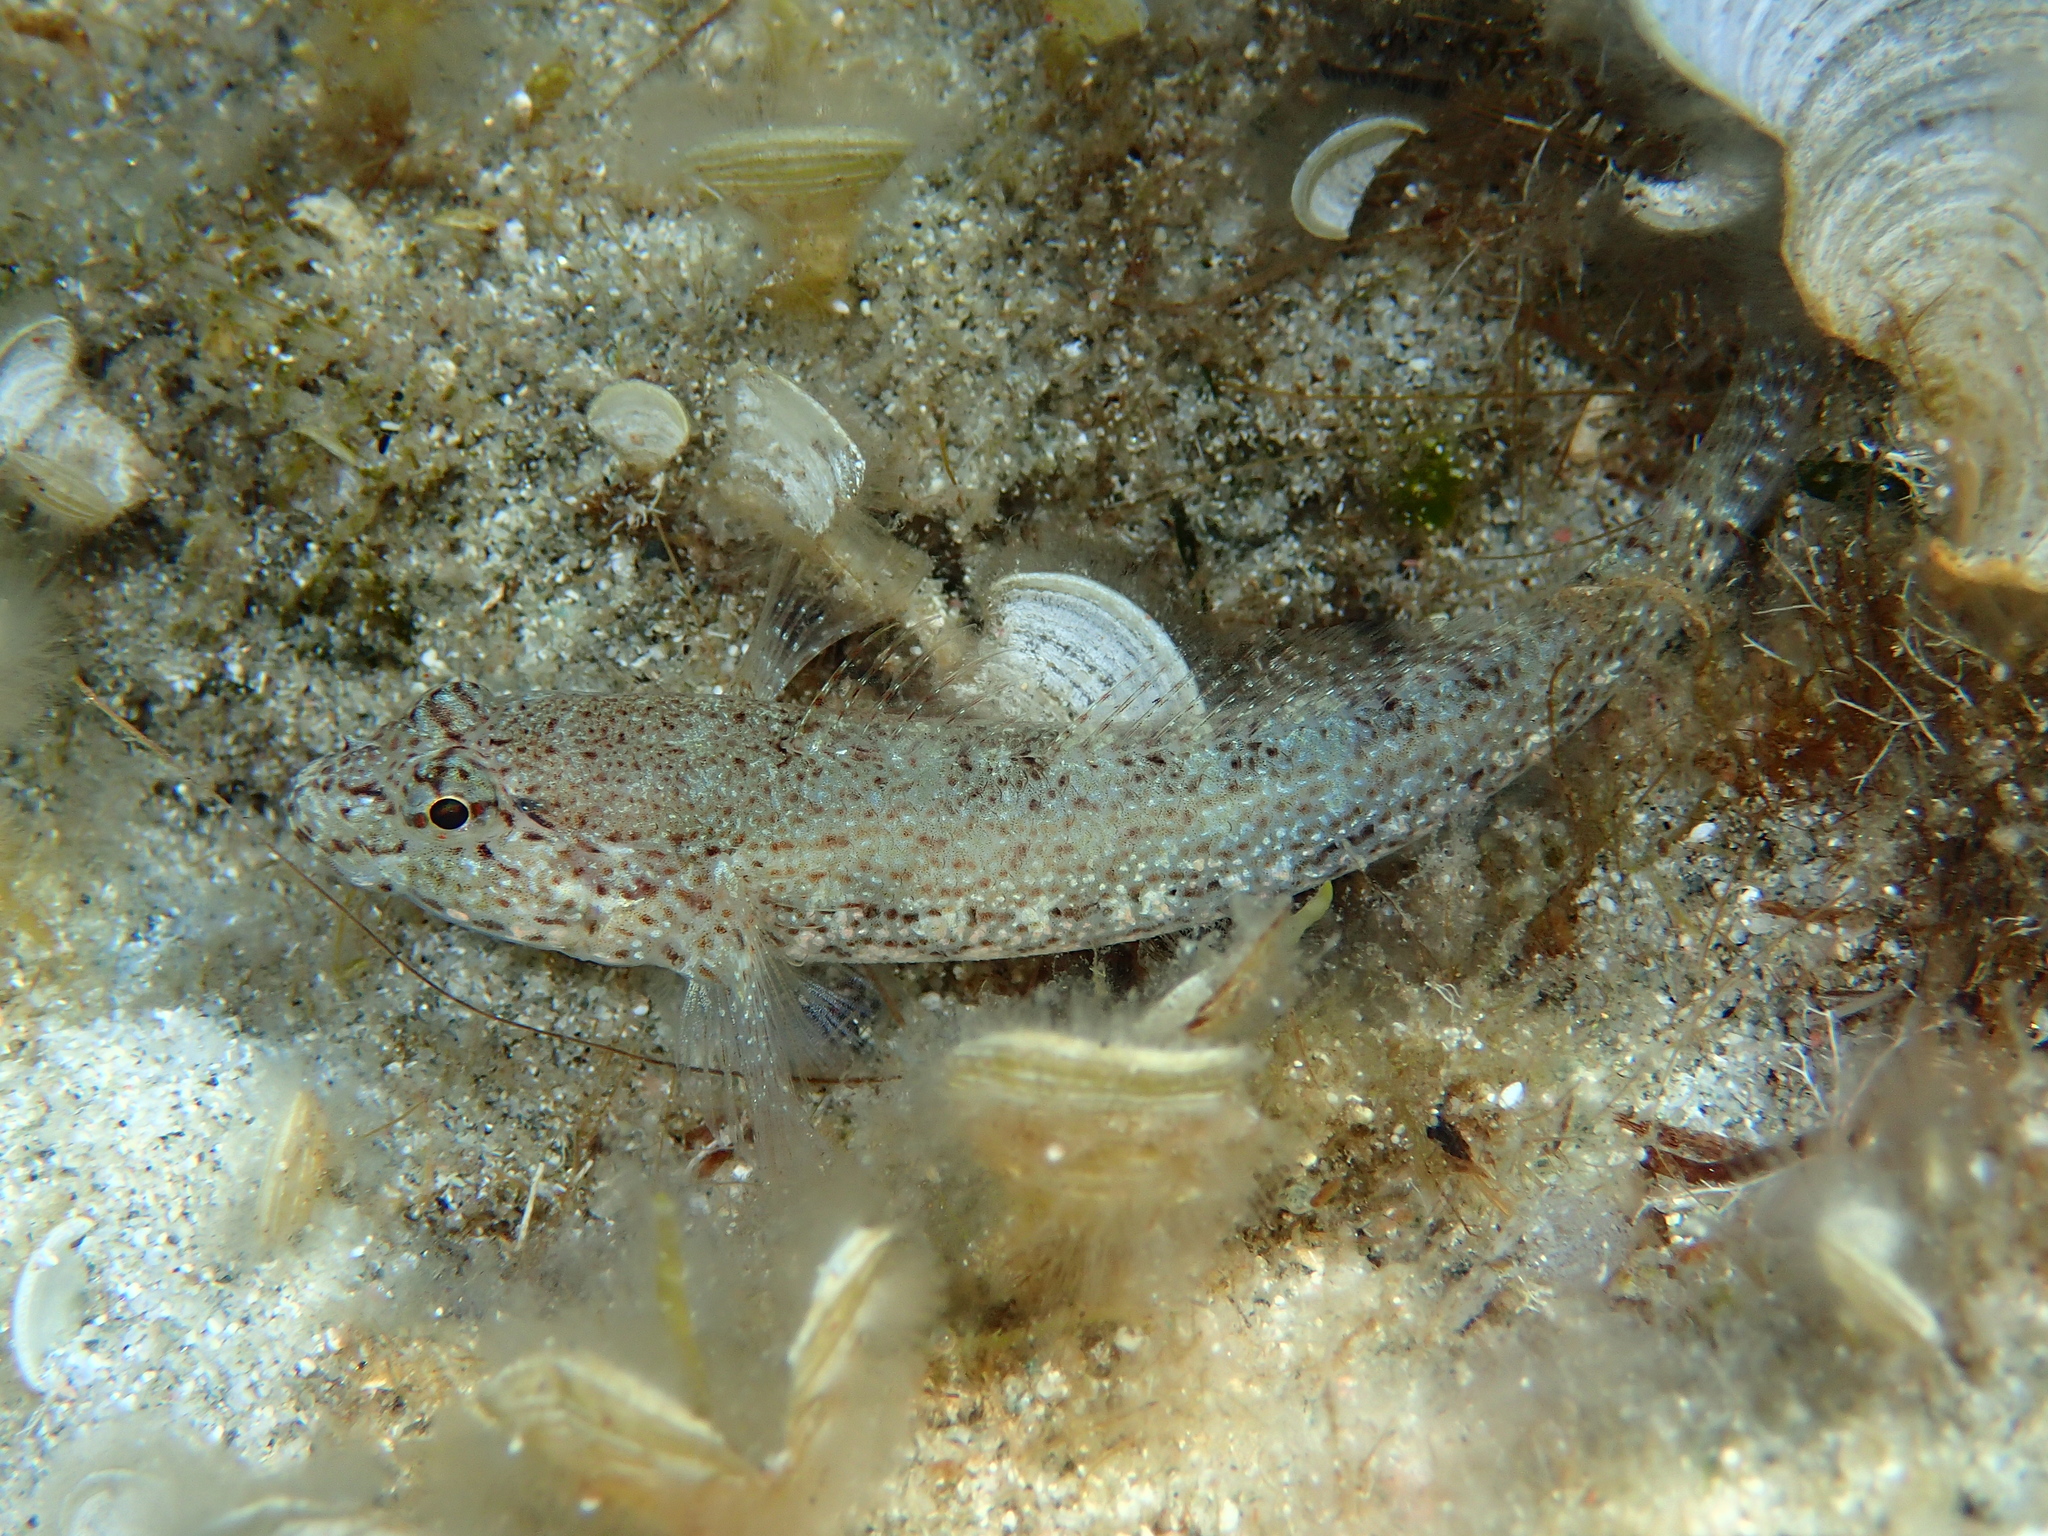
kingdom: Animalia
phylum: Chordata
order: Perciformes
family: Gobiidae
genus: Gobius
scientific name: Gobius incognitus
